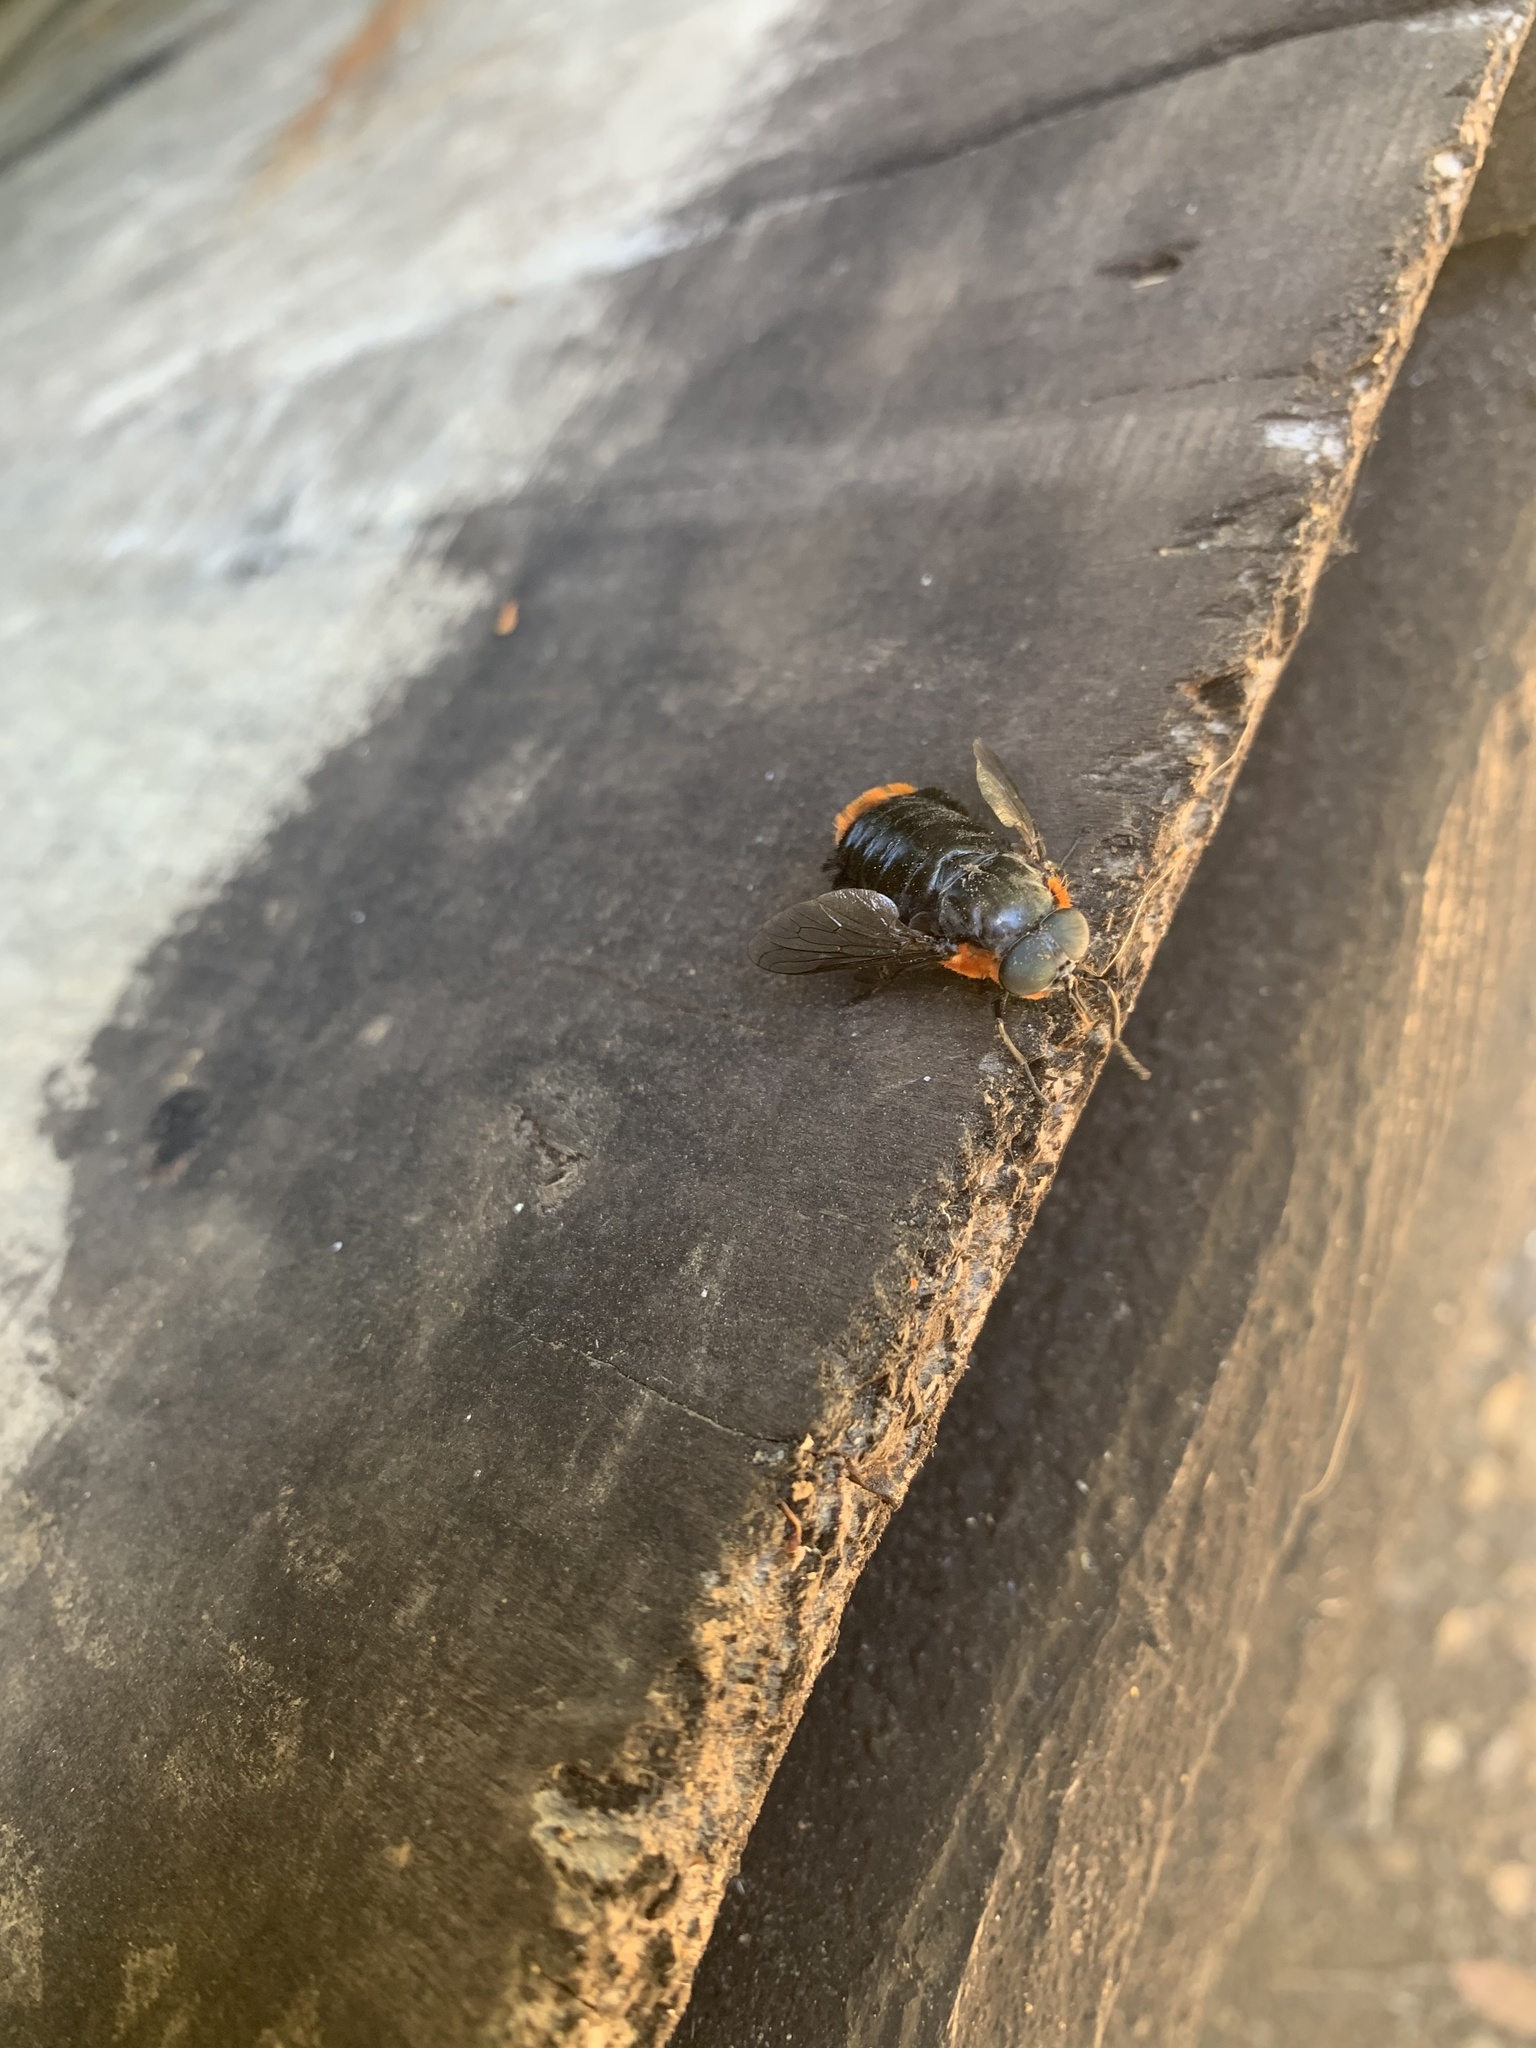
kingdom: Animalia
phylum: Arthropoda
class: Insecta
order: Diptera
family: Tabanidae
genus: Osca
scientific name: Osca lata
